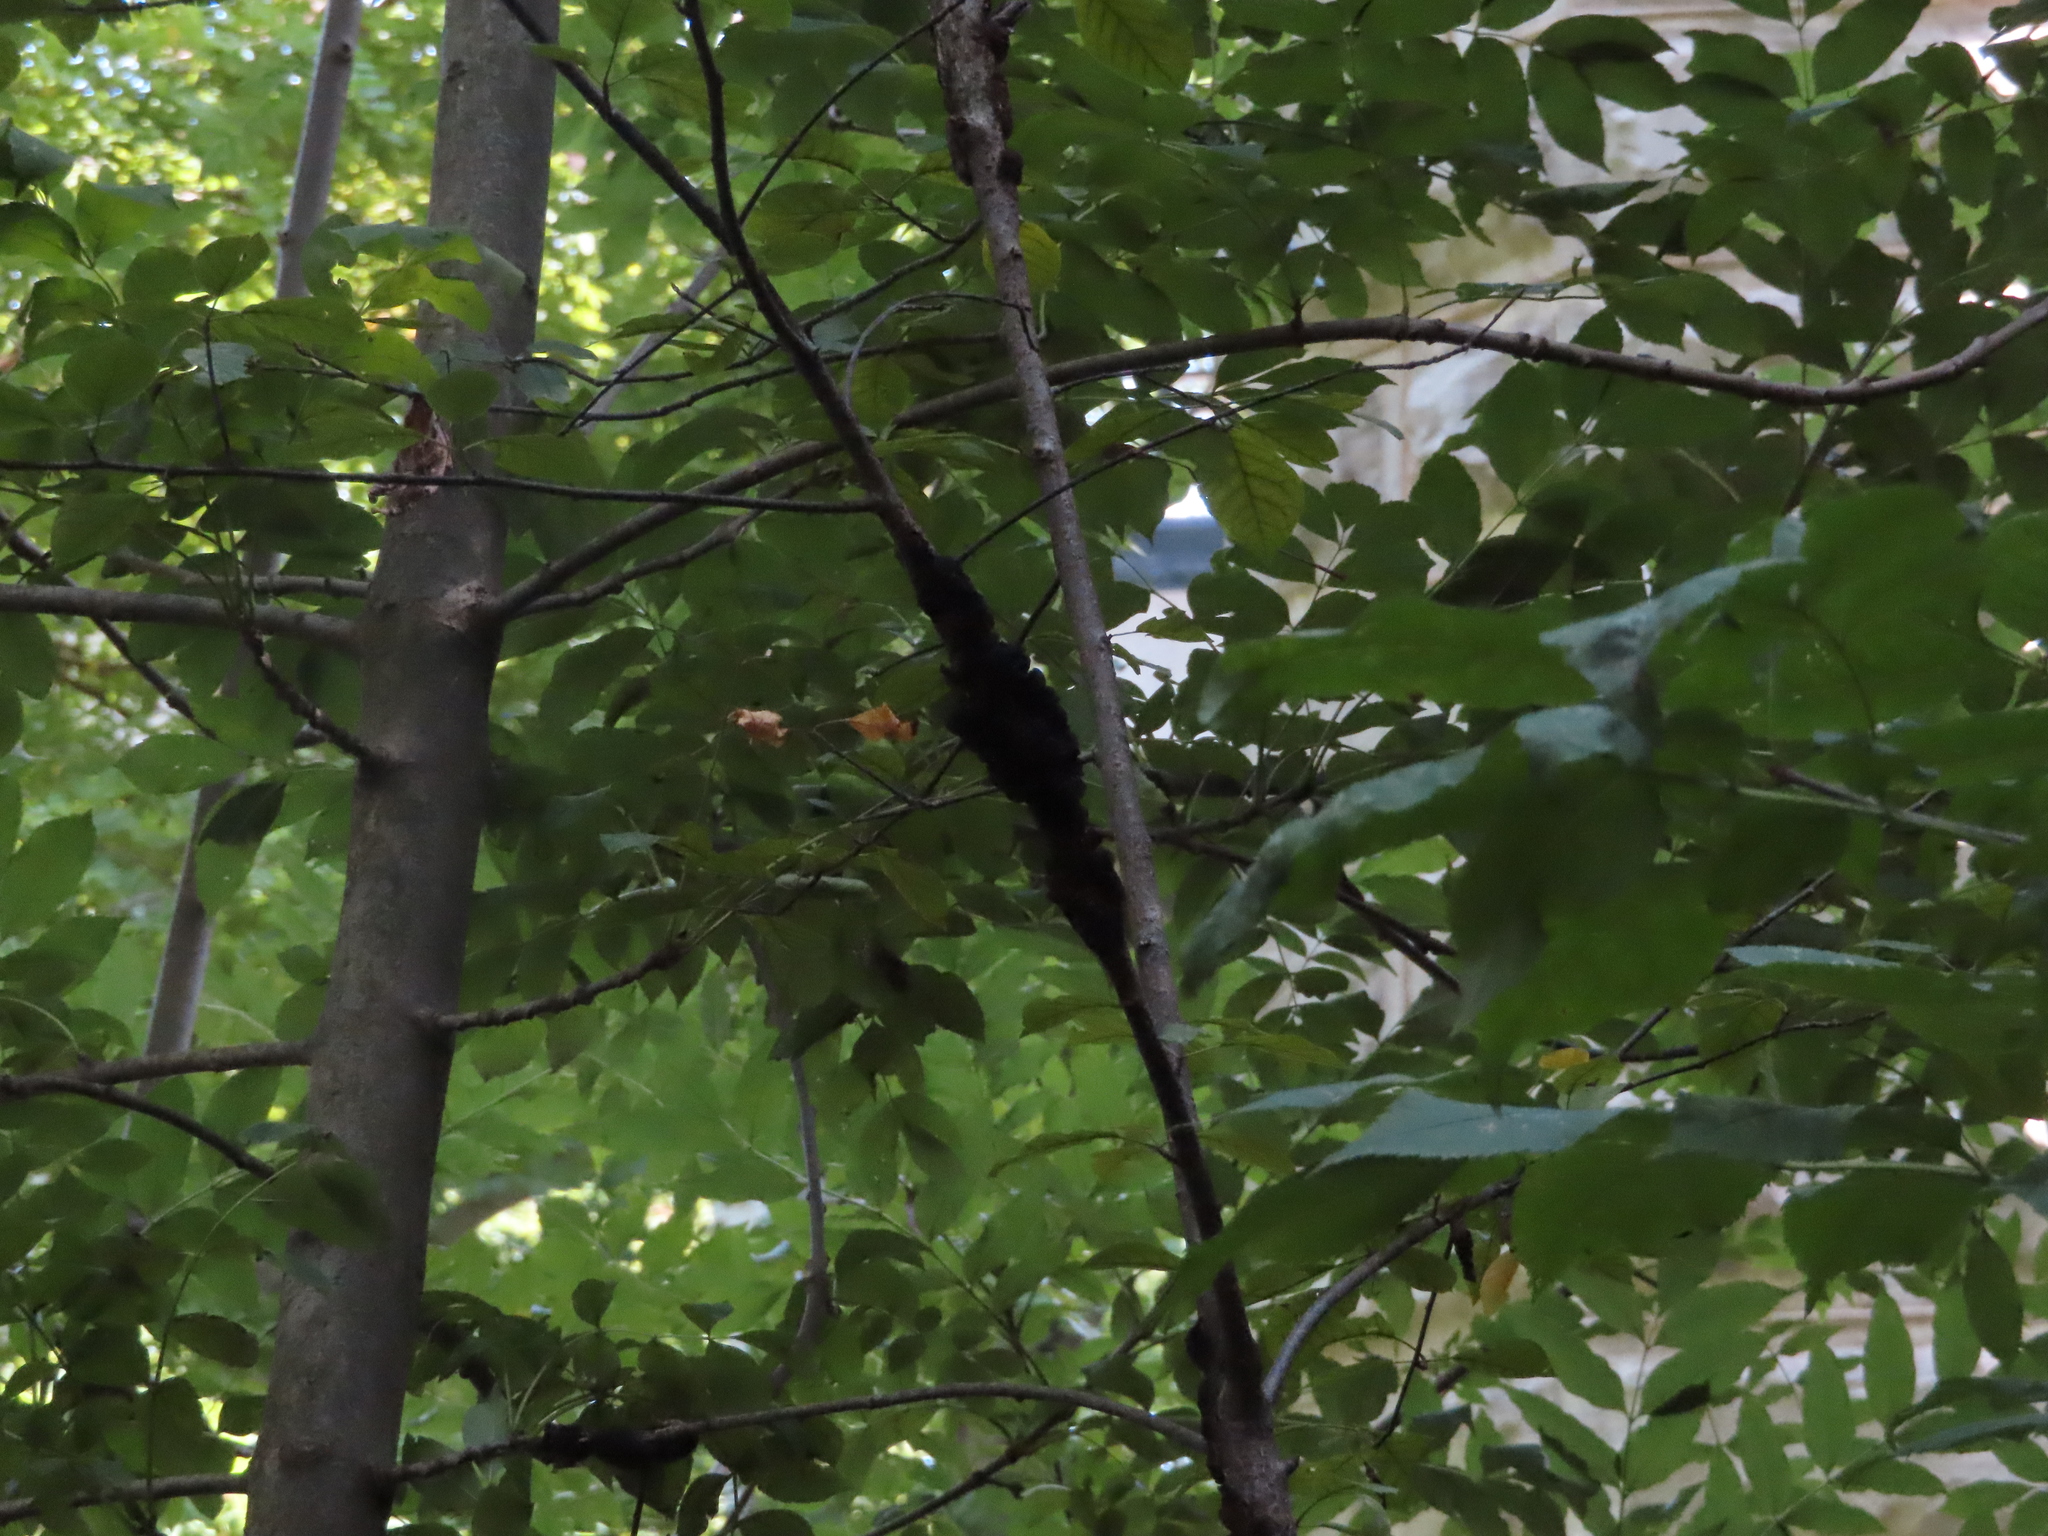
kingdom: Fungi
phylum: Ascomycota
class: Dothideomycetes
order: Venturiales
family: Venturiaceae
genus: Apiosporina
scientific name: Apiosporina morbosa
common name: Black knot
